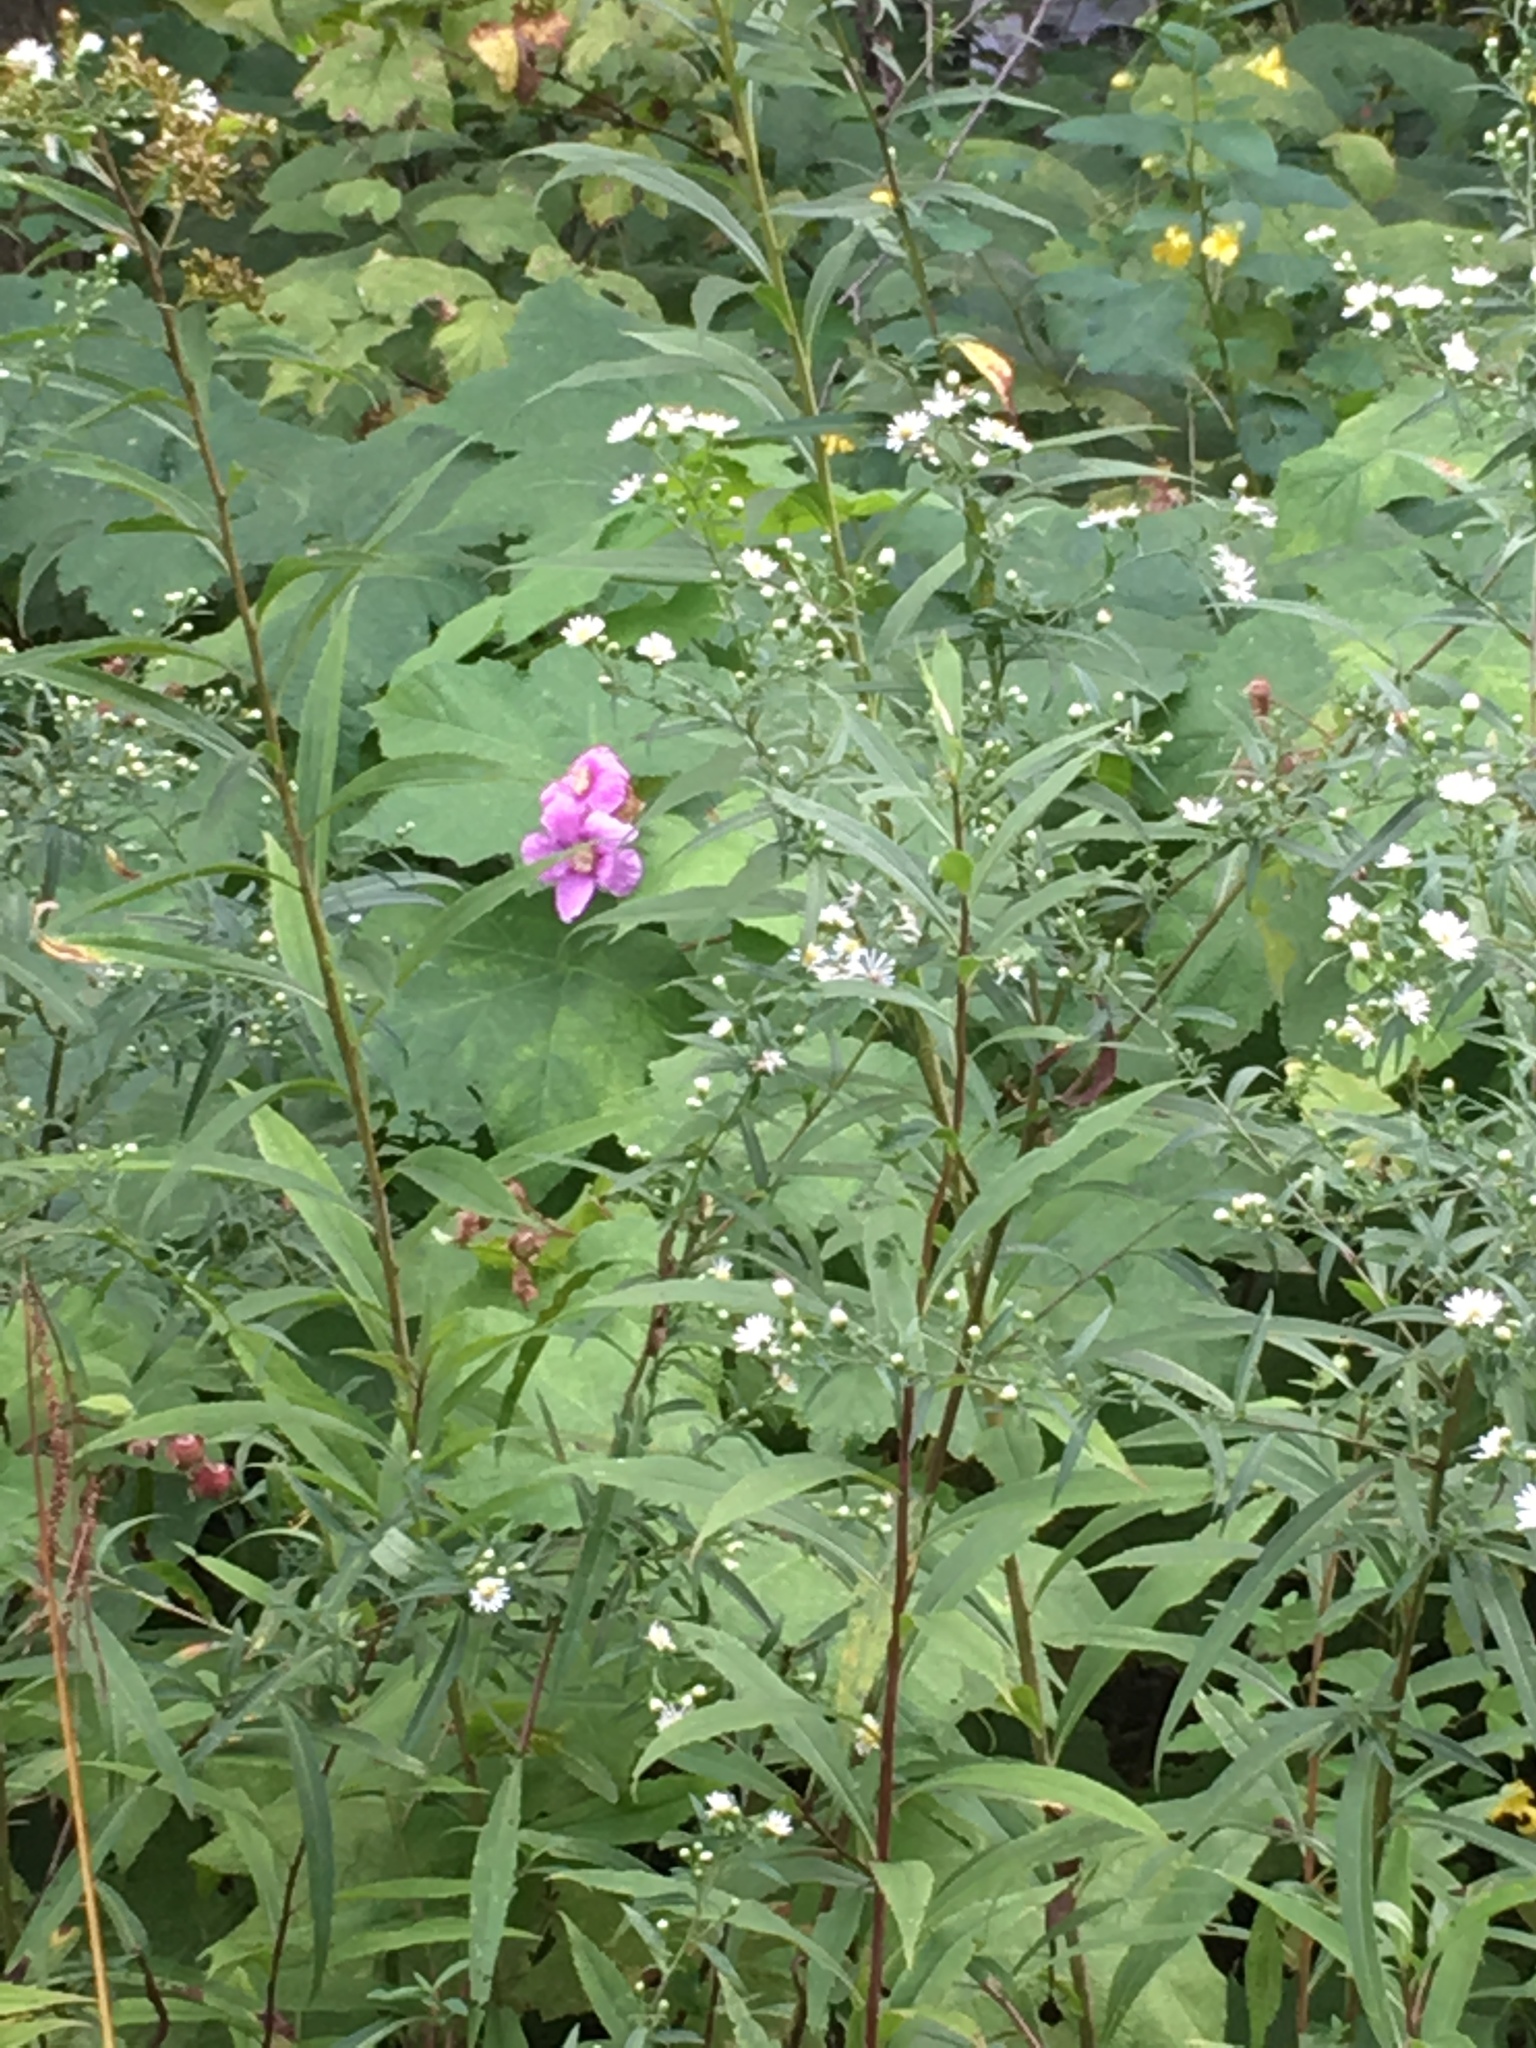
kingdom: Plantae
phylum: Tracheophyta
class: Magnoliopsida
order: Rosales
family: Rosaceae
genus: Rubus
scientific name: Rubus odoratus
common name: Purple-flowered raspberry
